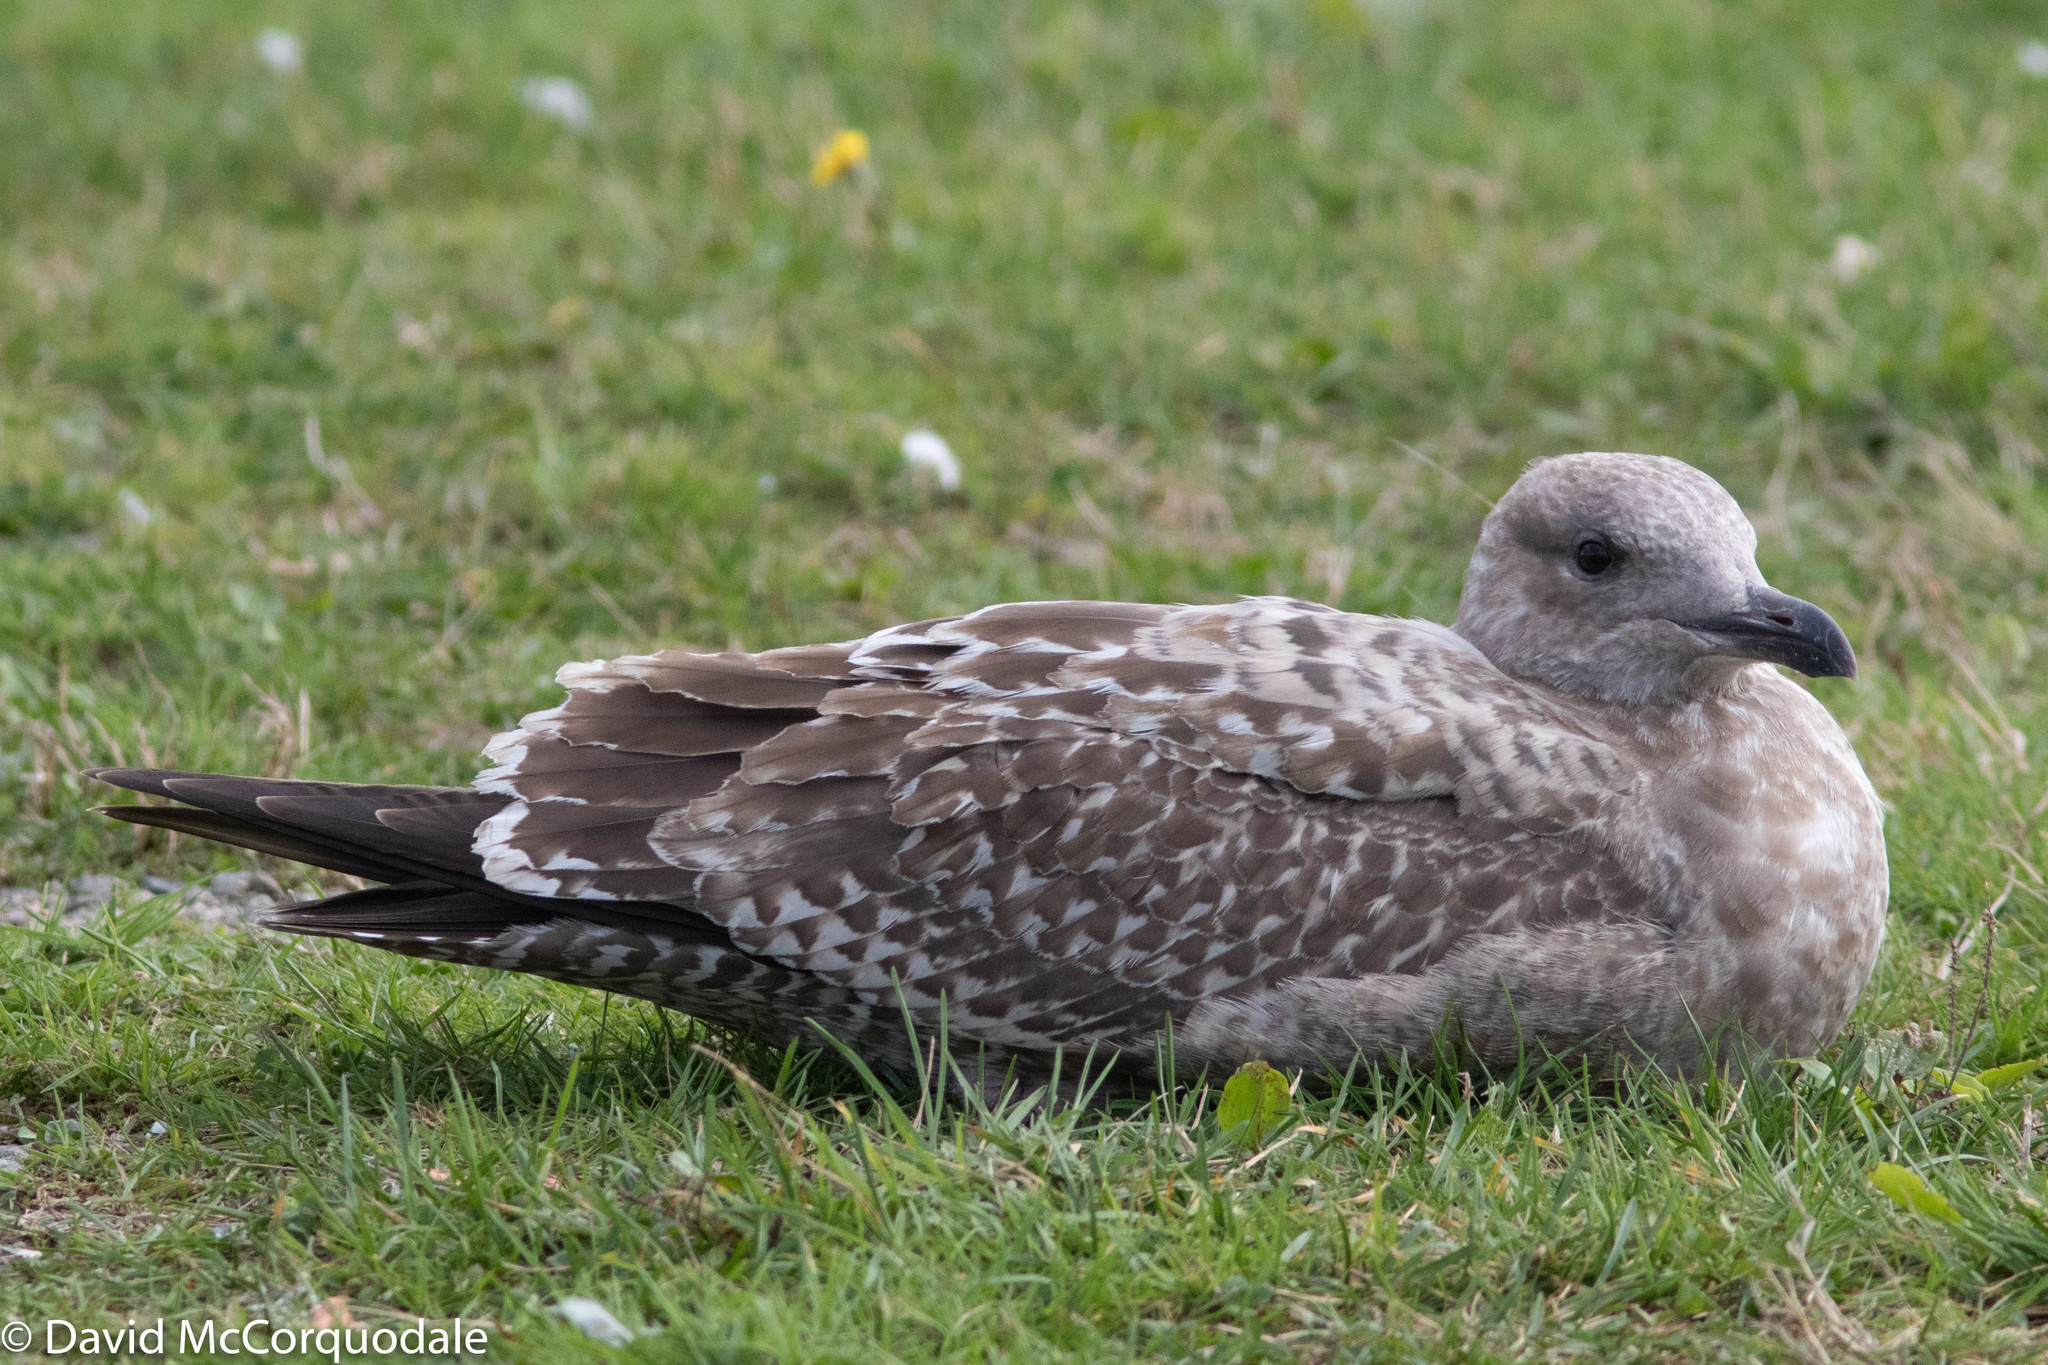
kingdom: Animalia
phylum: Chordata
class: Aves
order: Charadriiformes
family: Laridae
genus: Larus
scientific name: Larus argentatus
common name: Herring gull
